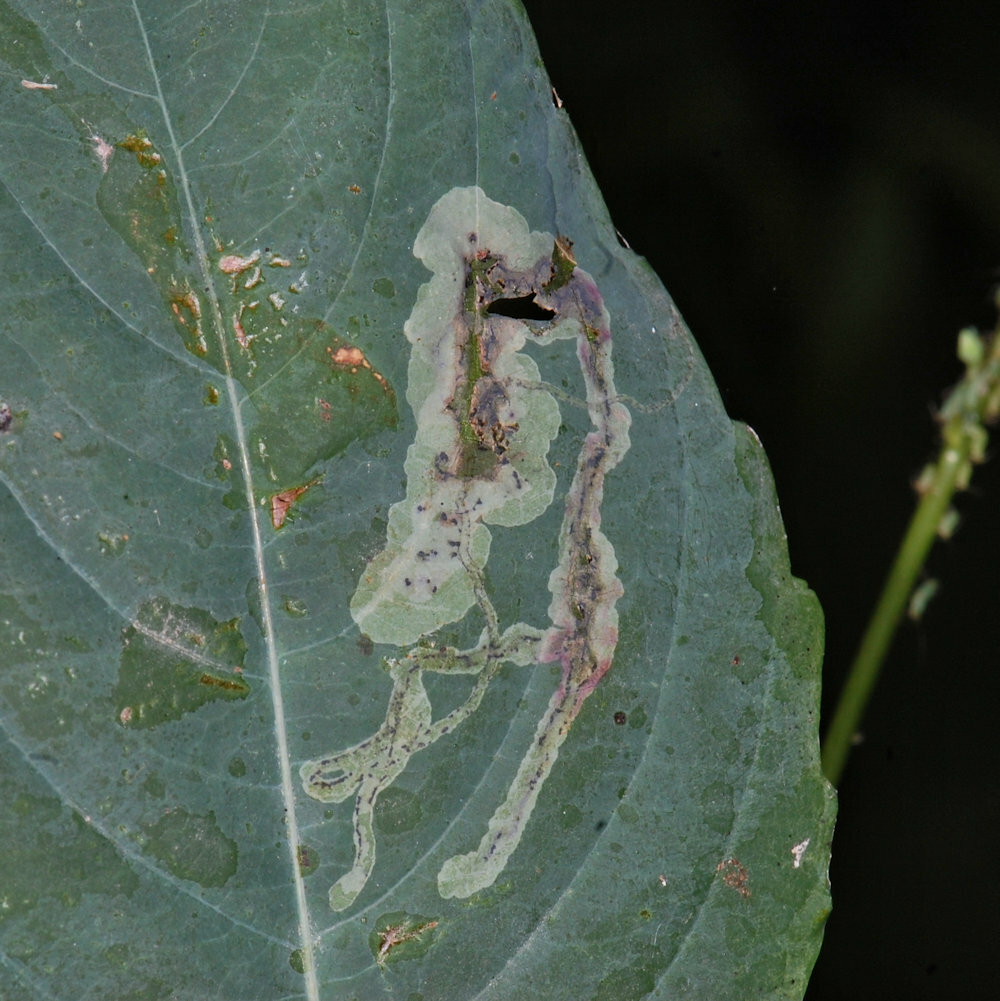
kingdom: Animalia
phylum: Arthropoda
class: Insecta
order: Diptera
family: Agromyzidae
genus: Phytoliriomyza
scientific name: Phytoliriomyza melampyga
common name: Jewelweed leaf-miner fly
